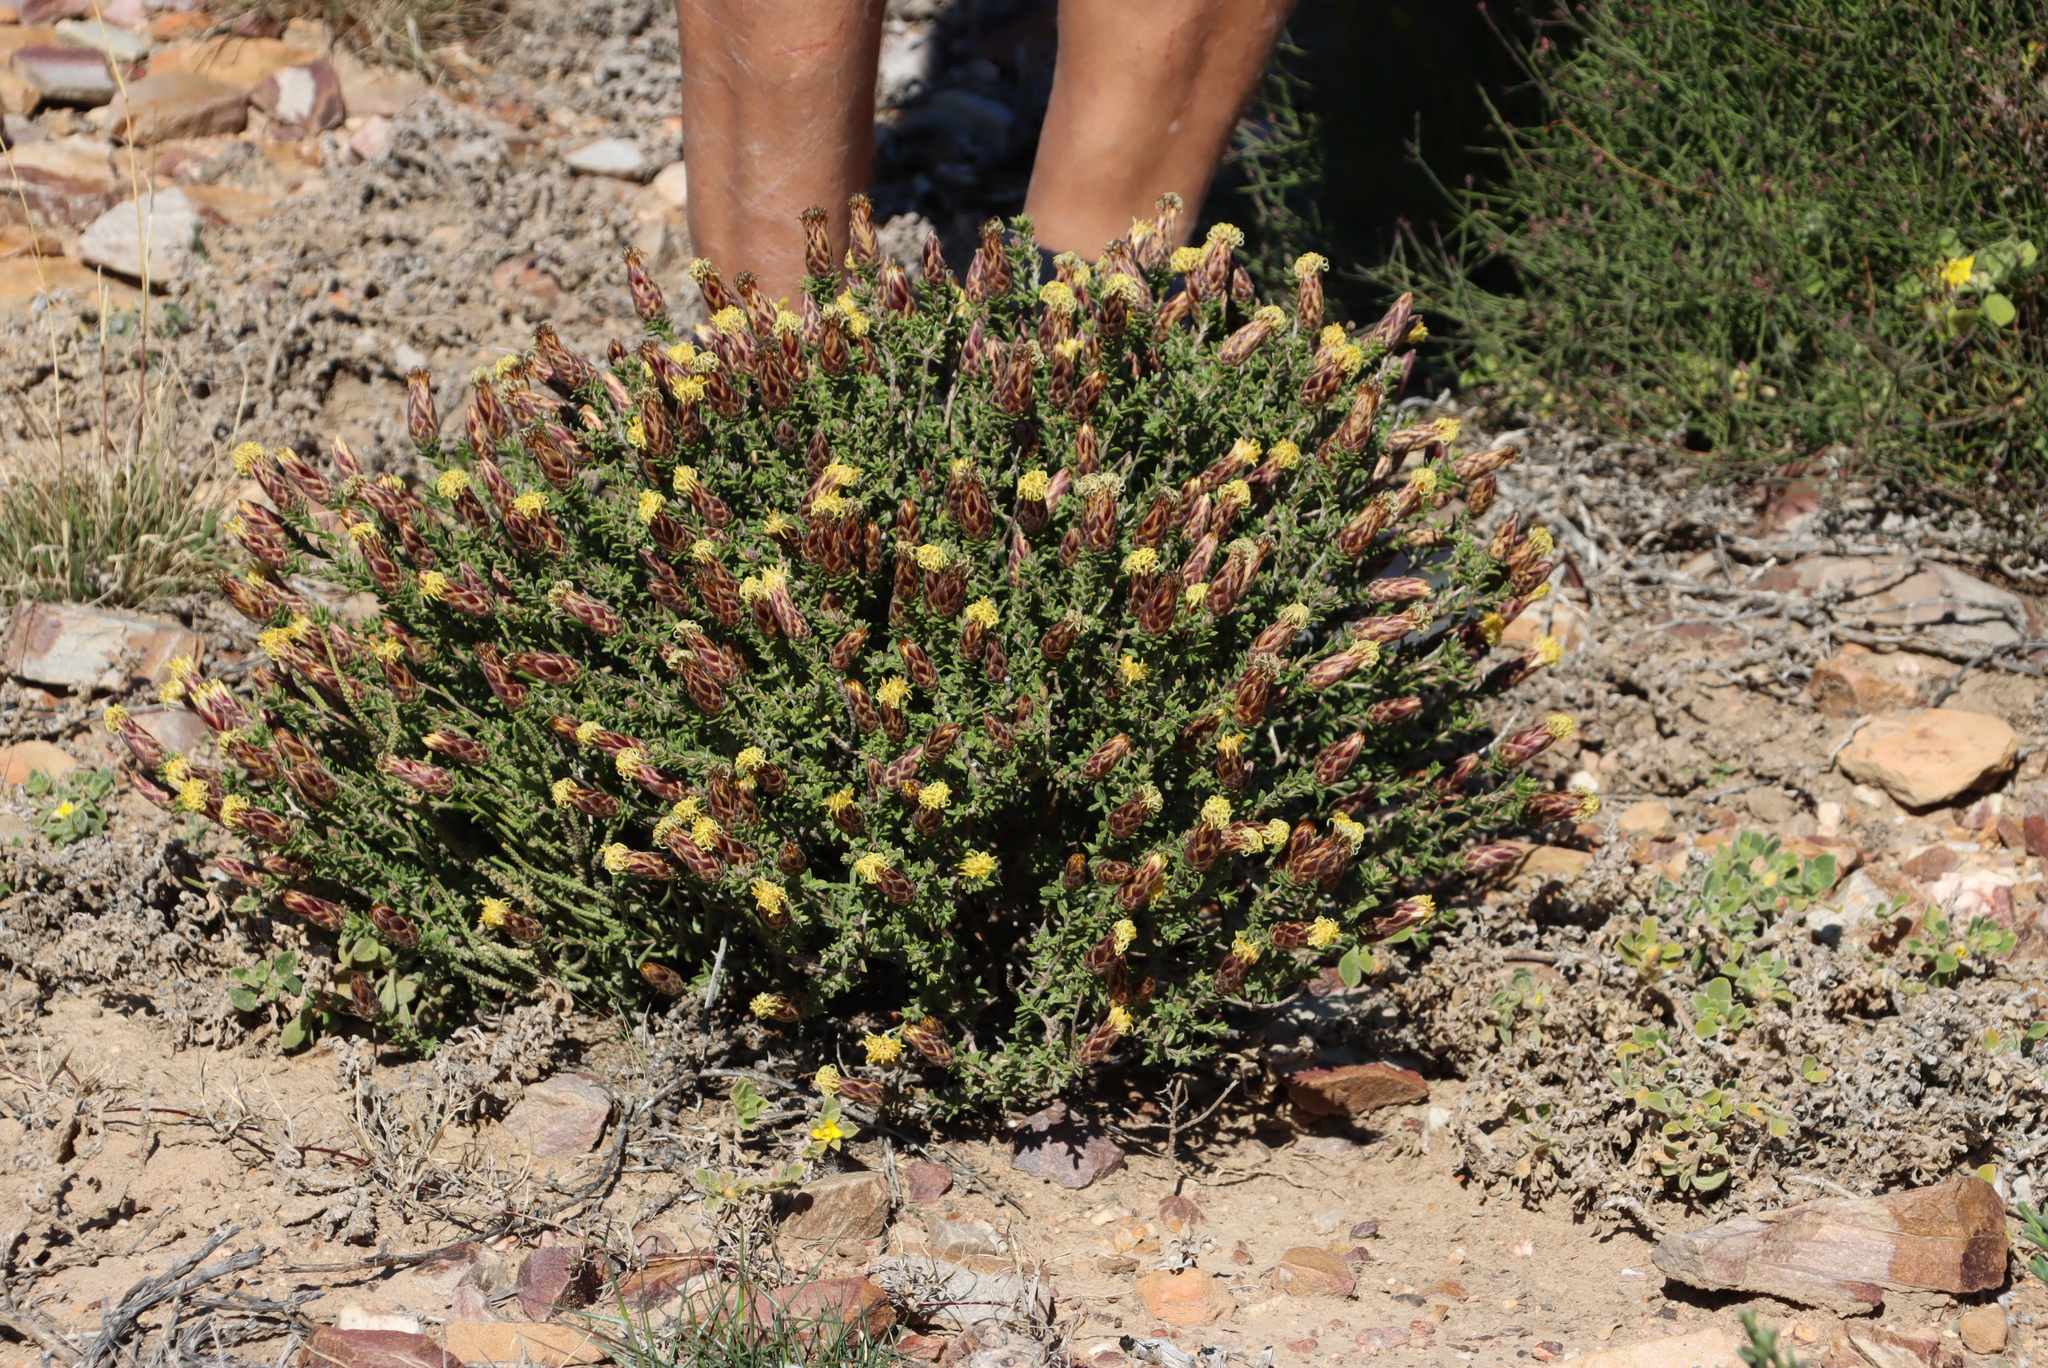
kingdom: Plantae
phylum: Tracheophyta
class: Magnoliopsida
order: Asterales
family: Asteraceae
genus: Pteronia
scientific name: Pteronia staehelinoides
